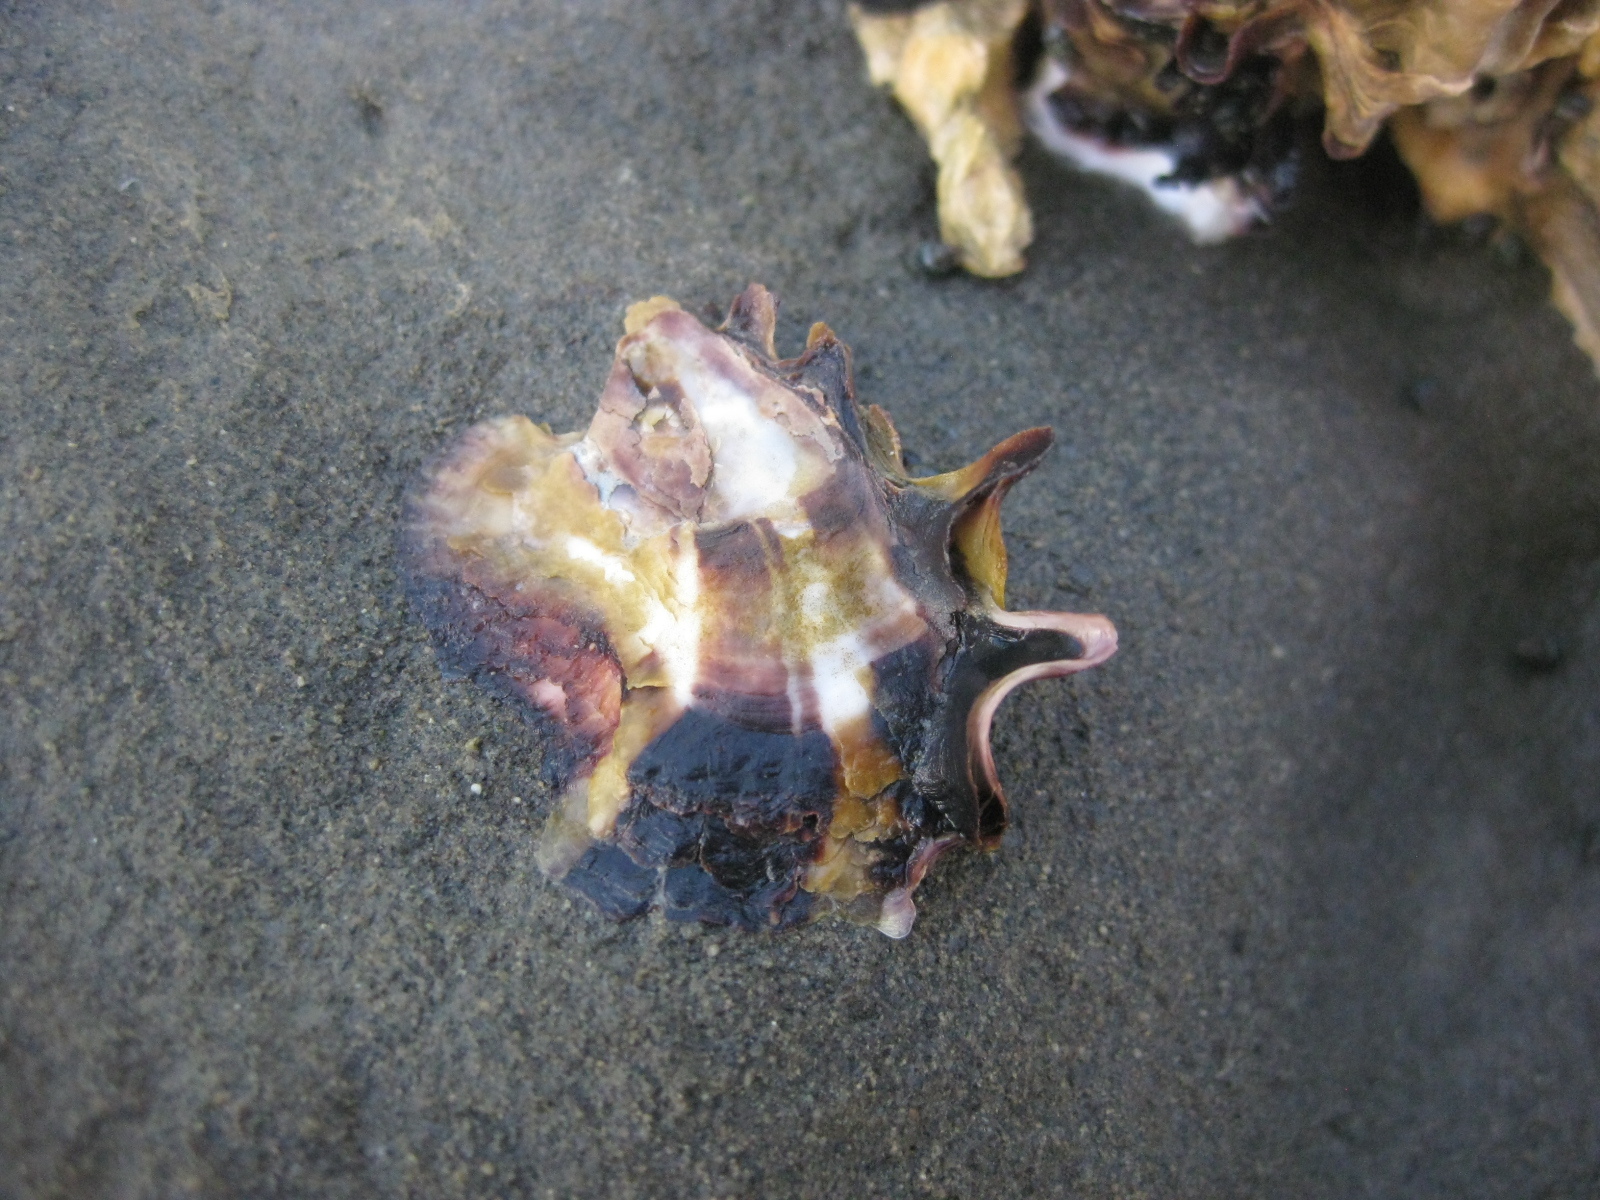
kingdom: Animalia
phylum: Mollusca
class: Bivalvia
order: Ostreida
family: Ostreidae
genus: Magallana
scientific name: Magallana gigas
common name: Pacific oyster
